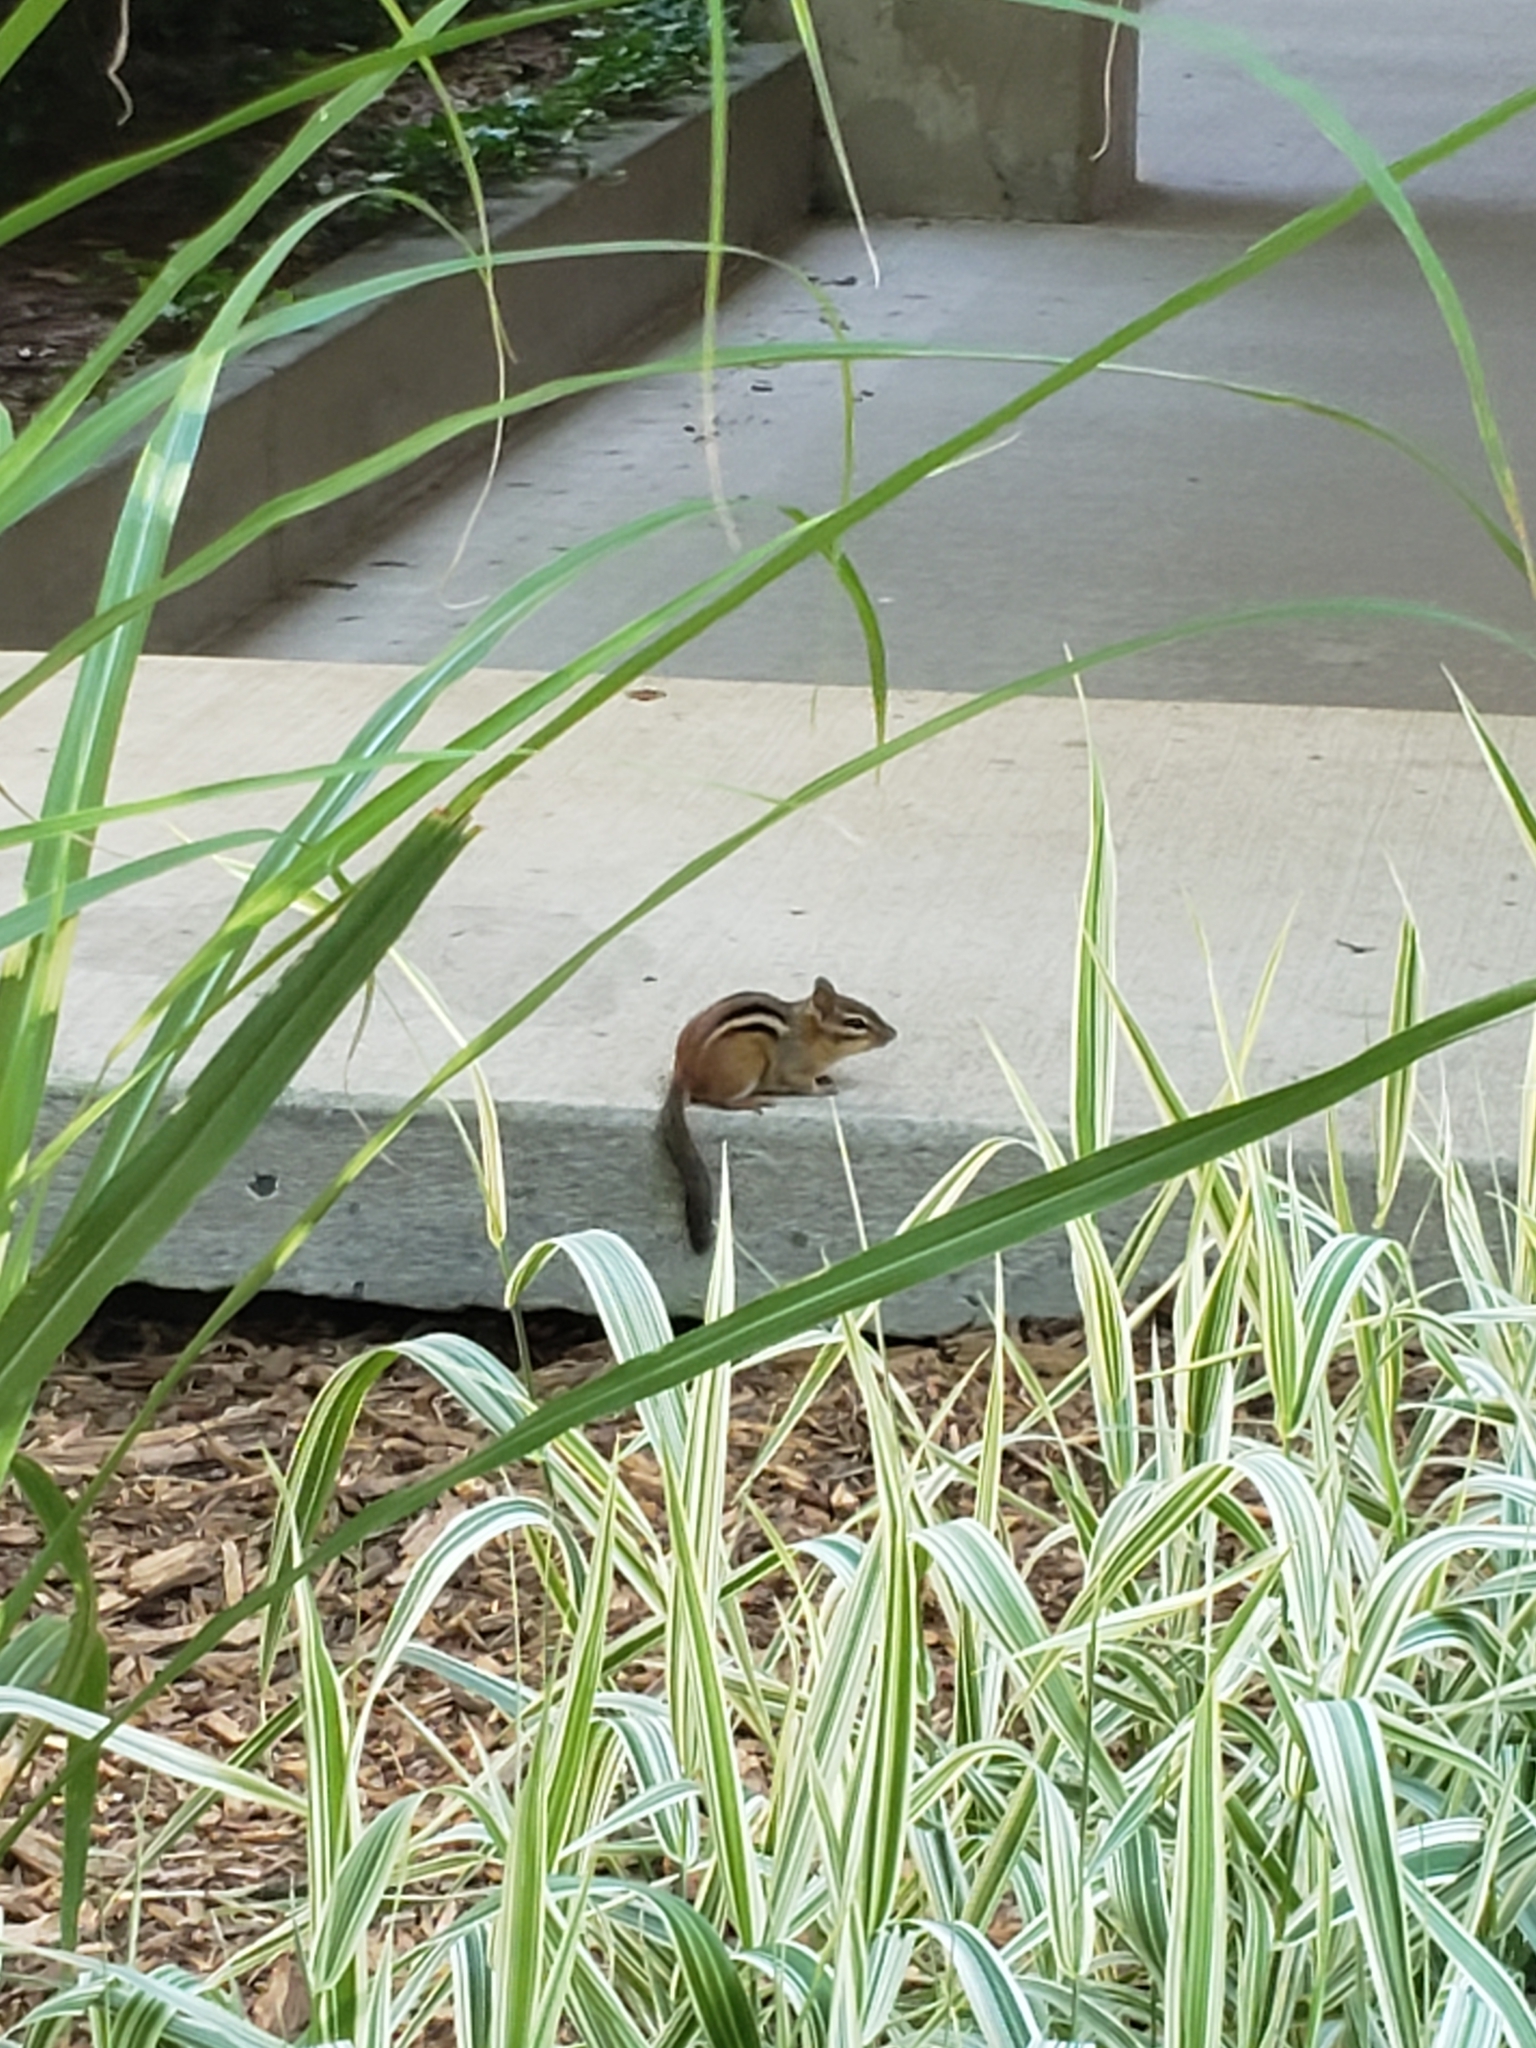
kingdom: Animalia
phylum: Chordata
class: Mammalia
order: Rodentia
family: Sciuridae
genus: Tamias
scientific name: Tamias striatus
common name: Eastern chipmunk
